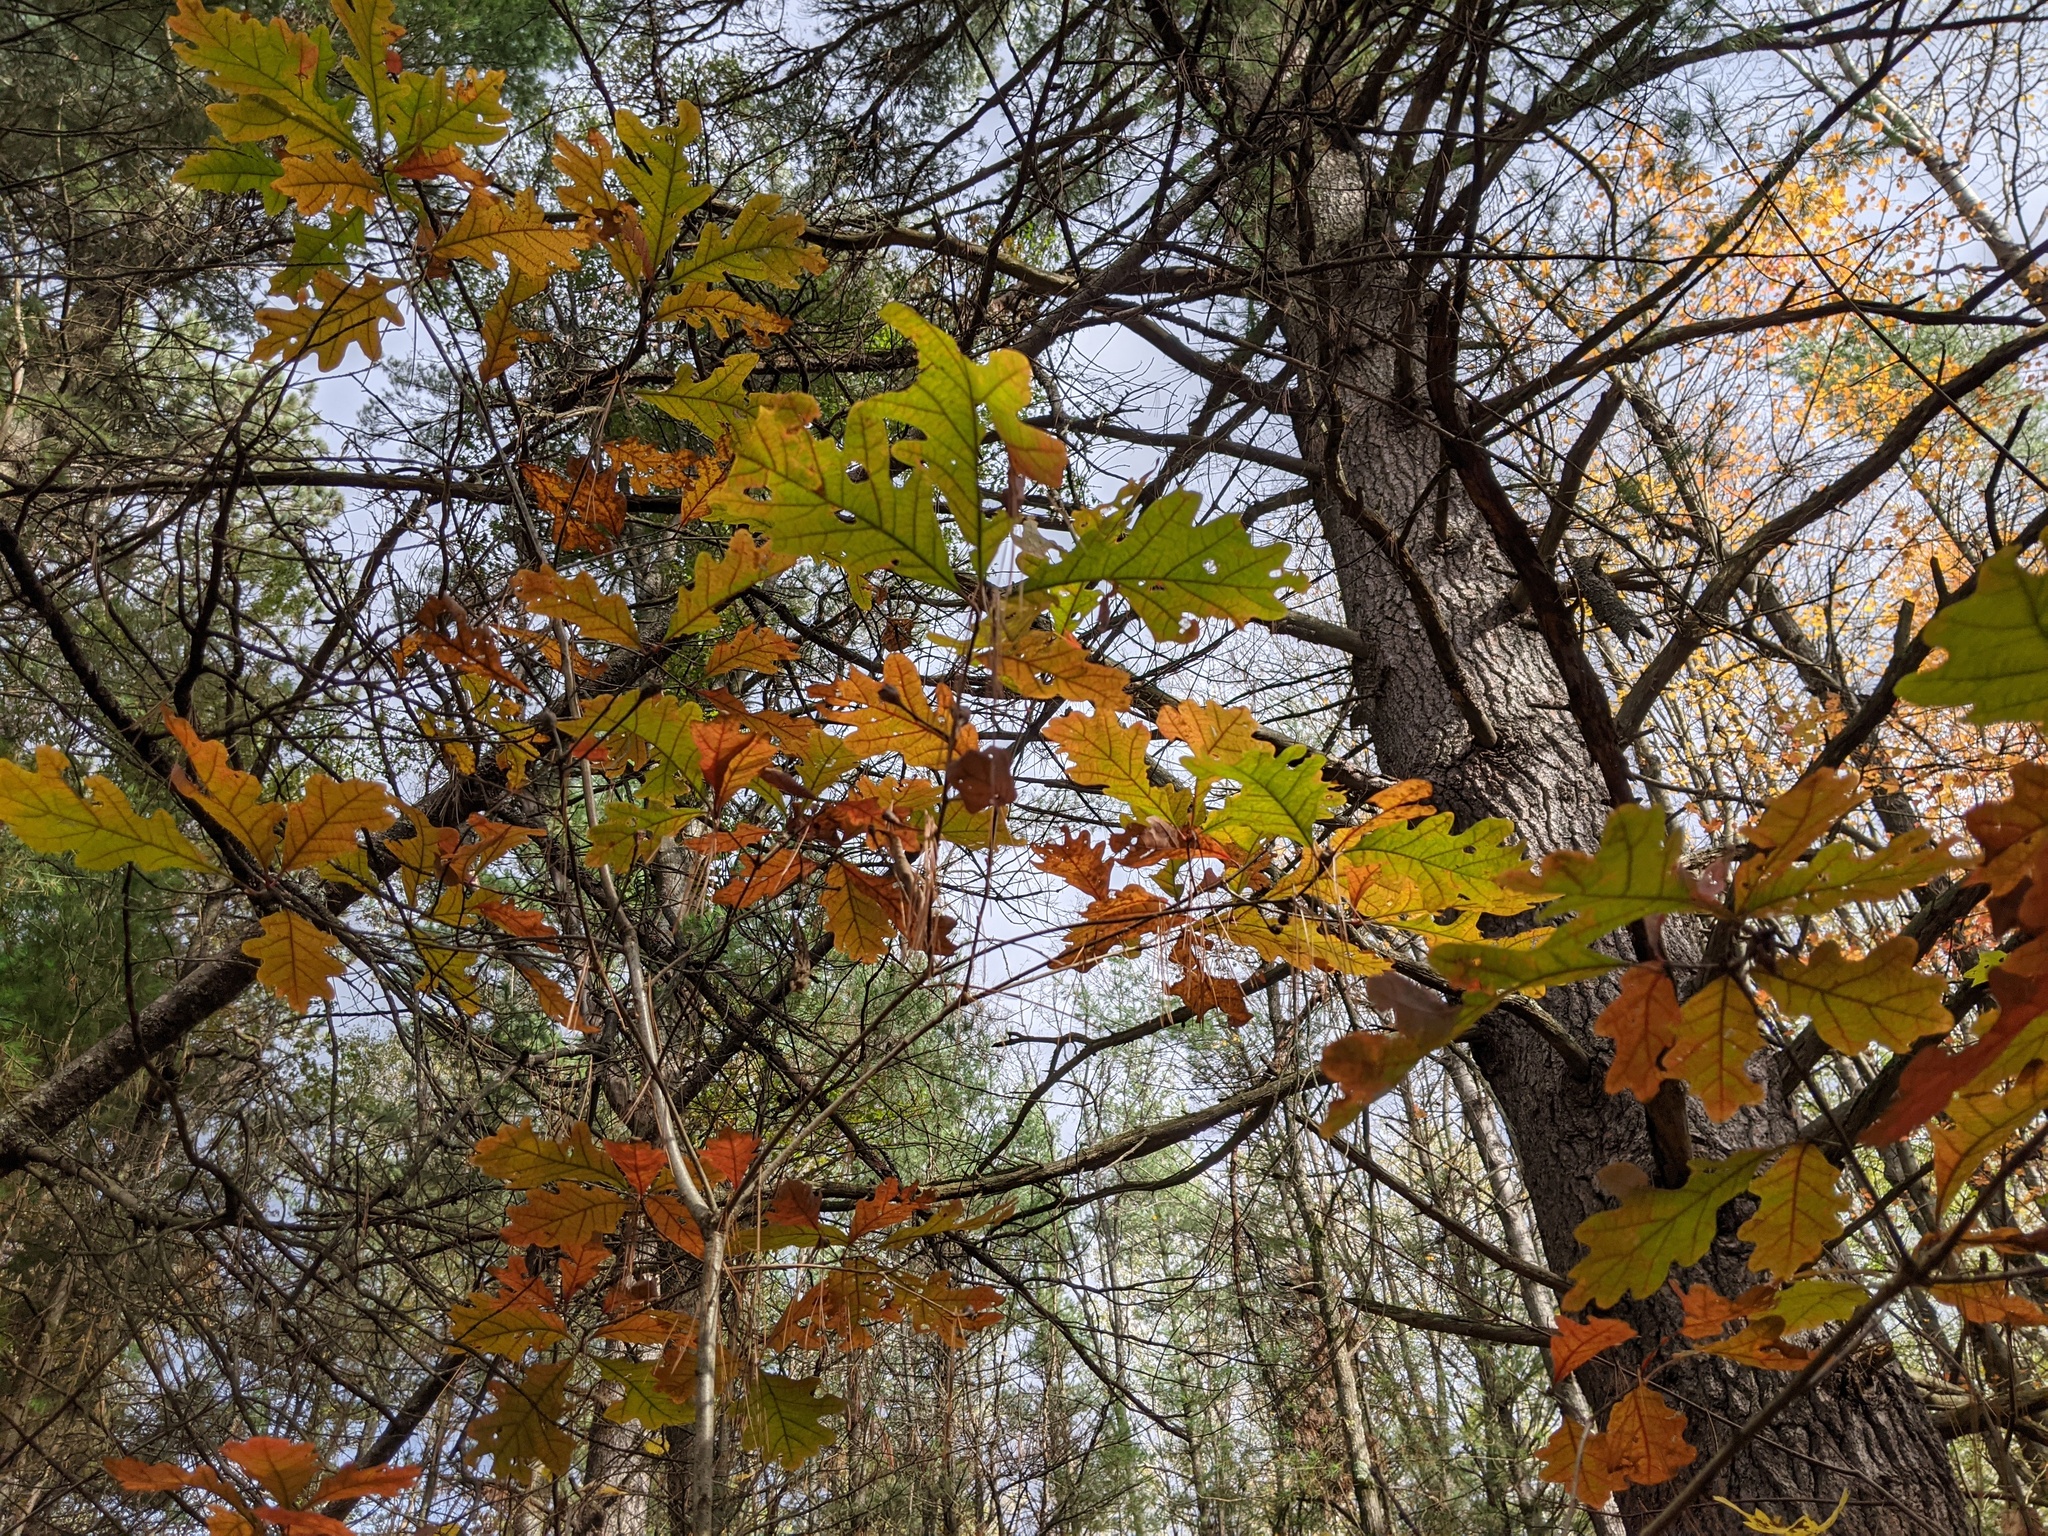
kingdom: Plantae
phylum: Tracheophyta
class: Magnoliopsida
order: Fagales
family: Fagaceae
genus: Quercus
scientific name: Quercus alba
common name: White oak
